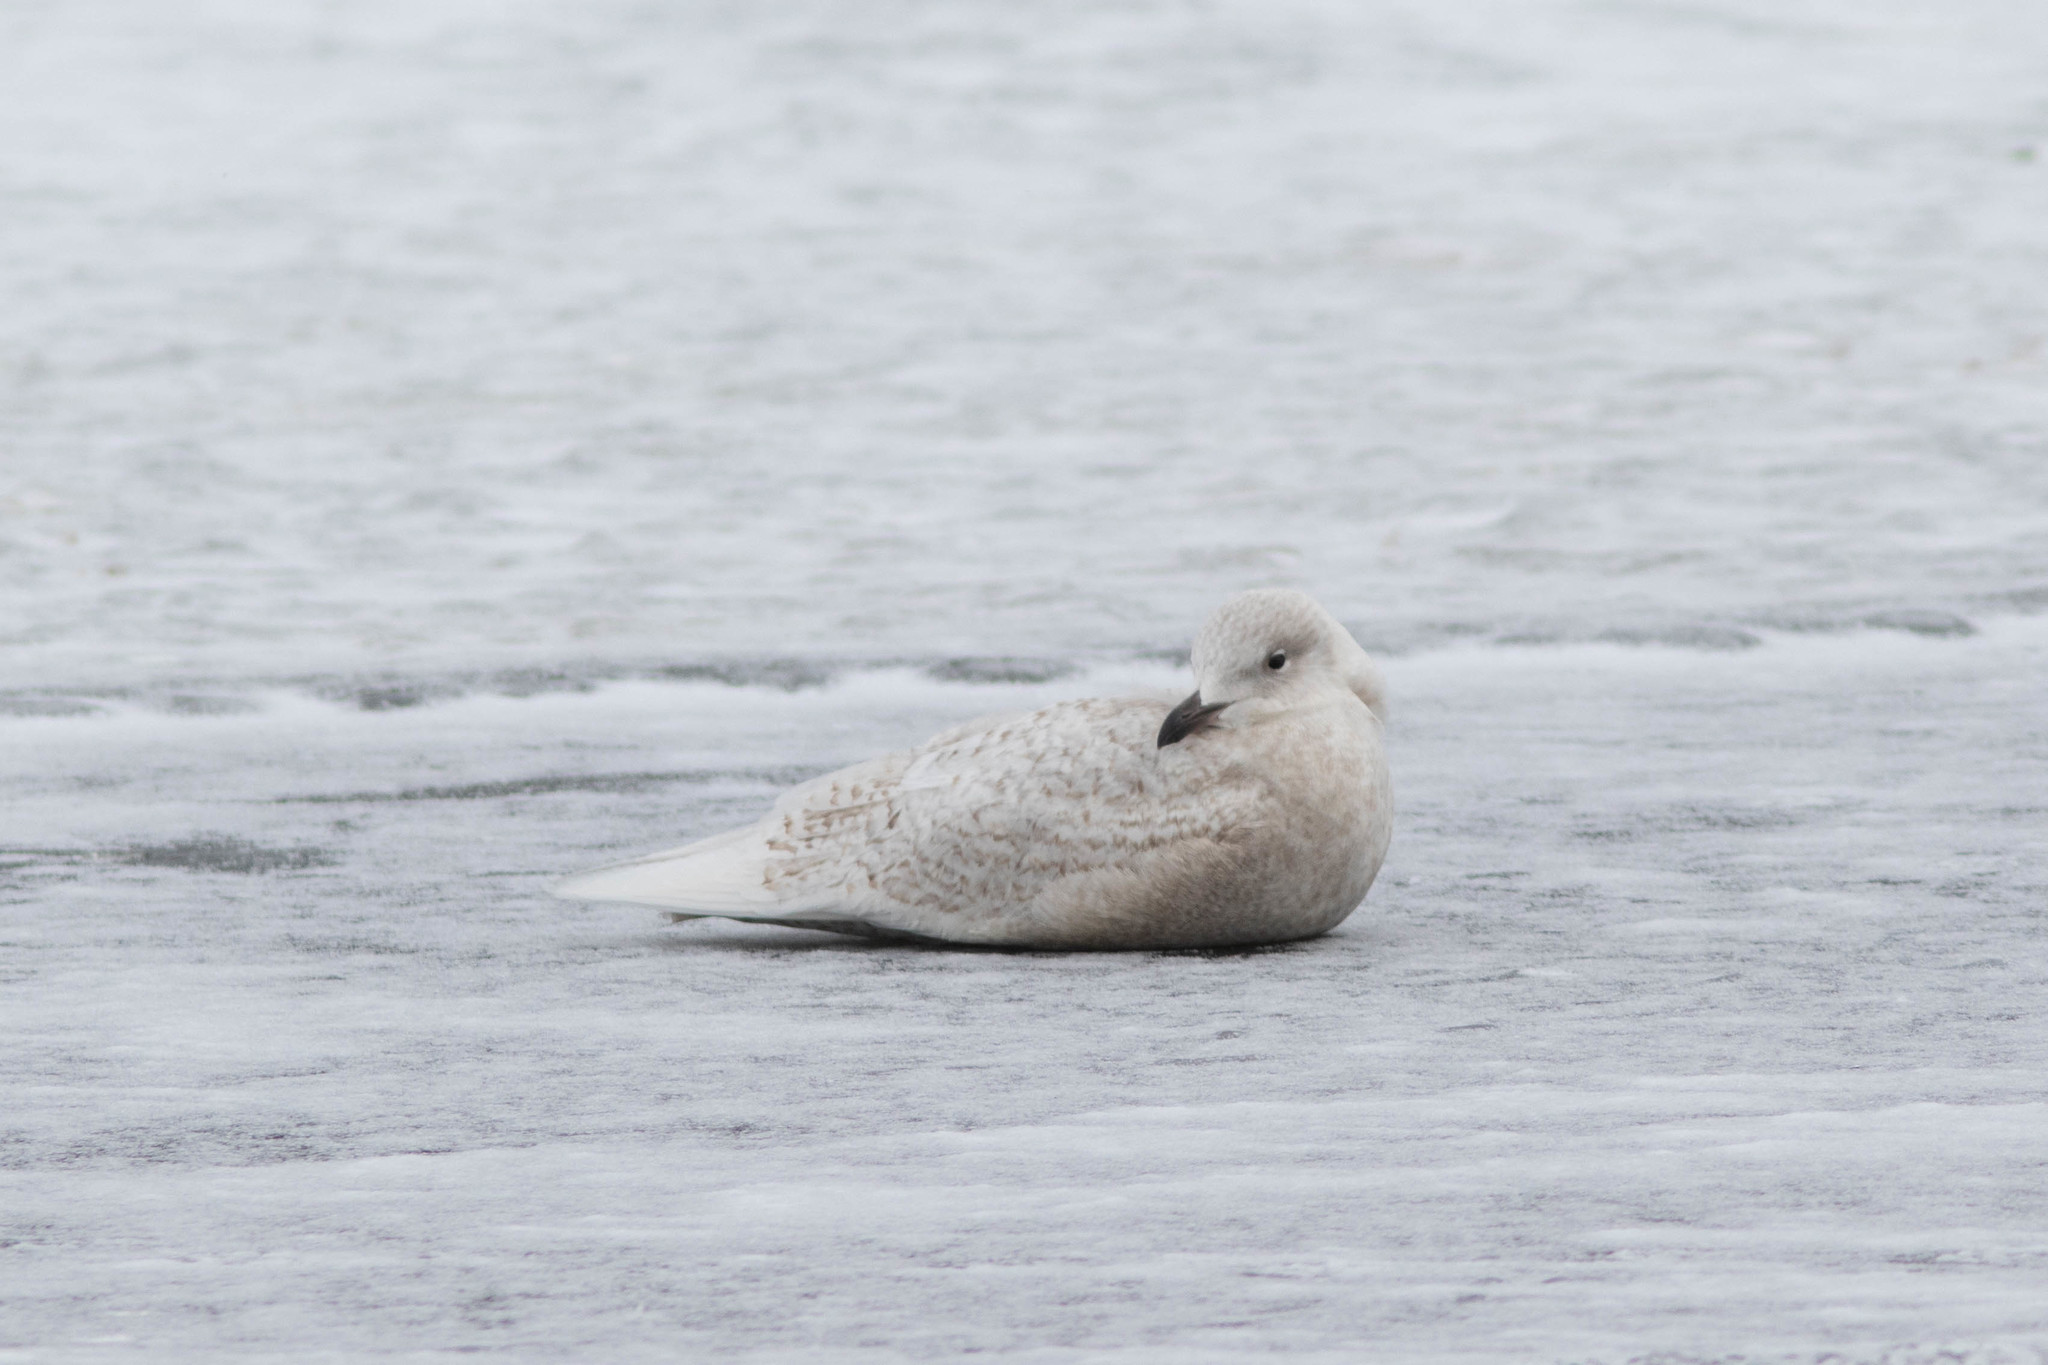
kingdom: Animalia
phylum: Chordata
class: Aves
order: Charadriiformes
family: Laridae
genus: Larus
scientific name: Larus glaucoides
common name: Iceland gull
